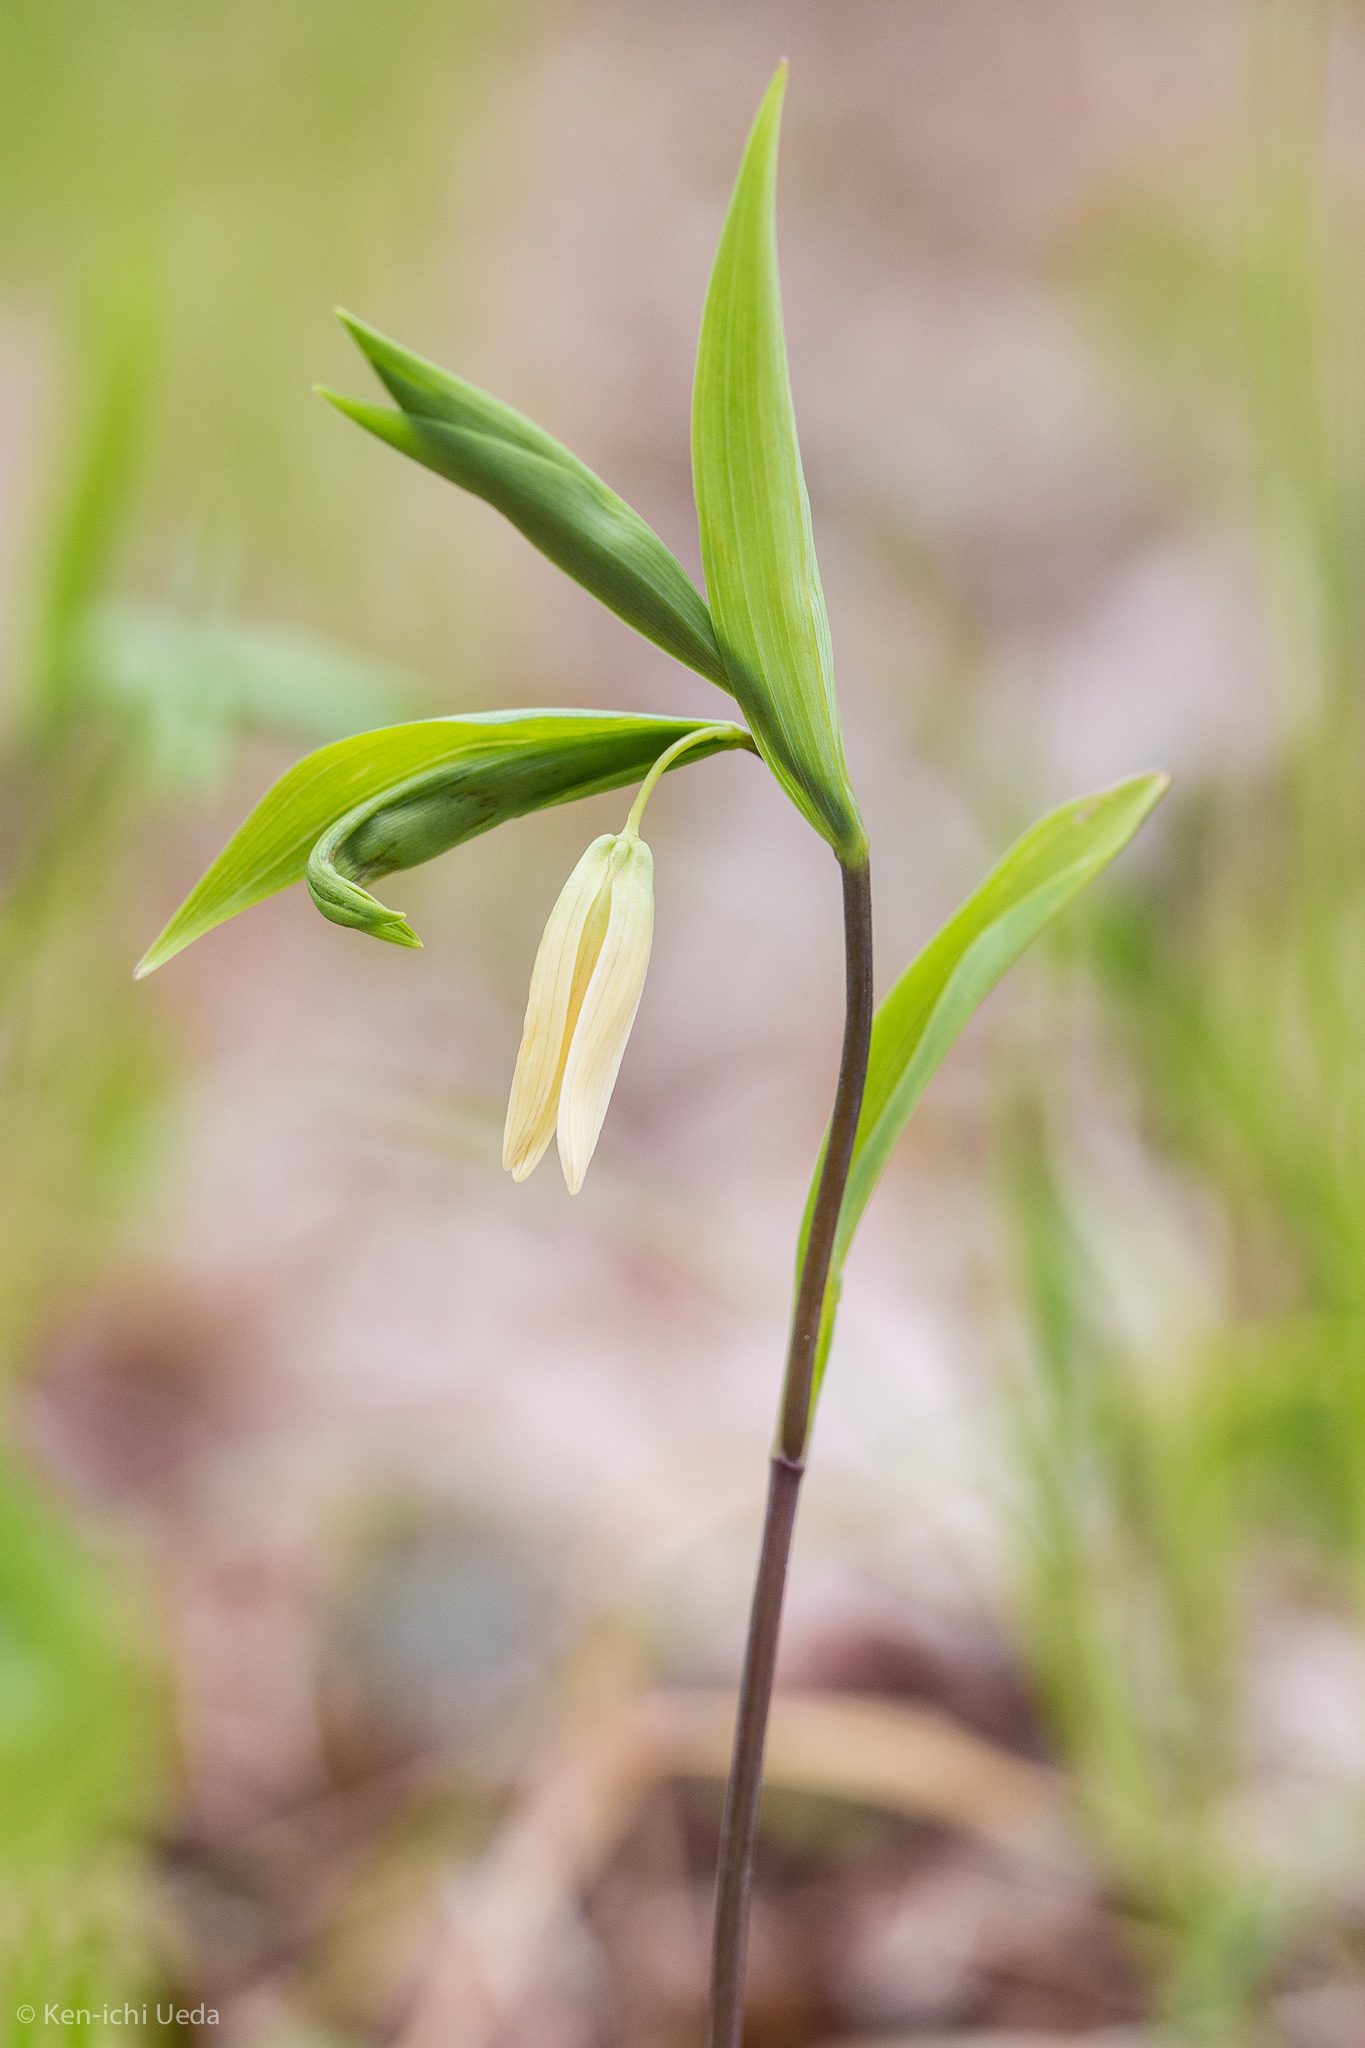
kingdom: Plantae
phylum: Tracheophyta
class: Liliopsida
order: Liliales
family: Colchicaceae
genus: Uvularia
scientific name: Uvularia sessilifolia
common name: Straw-lily
